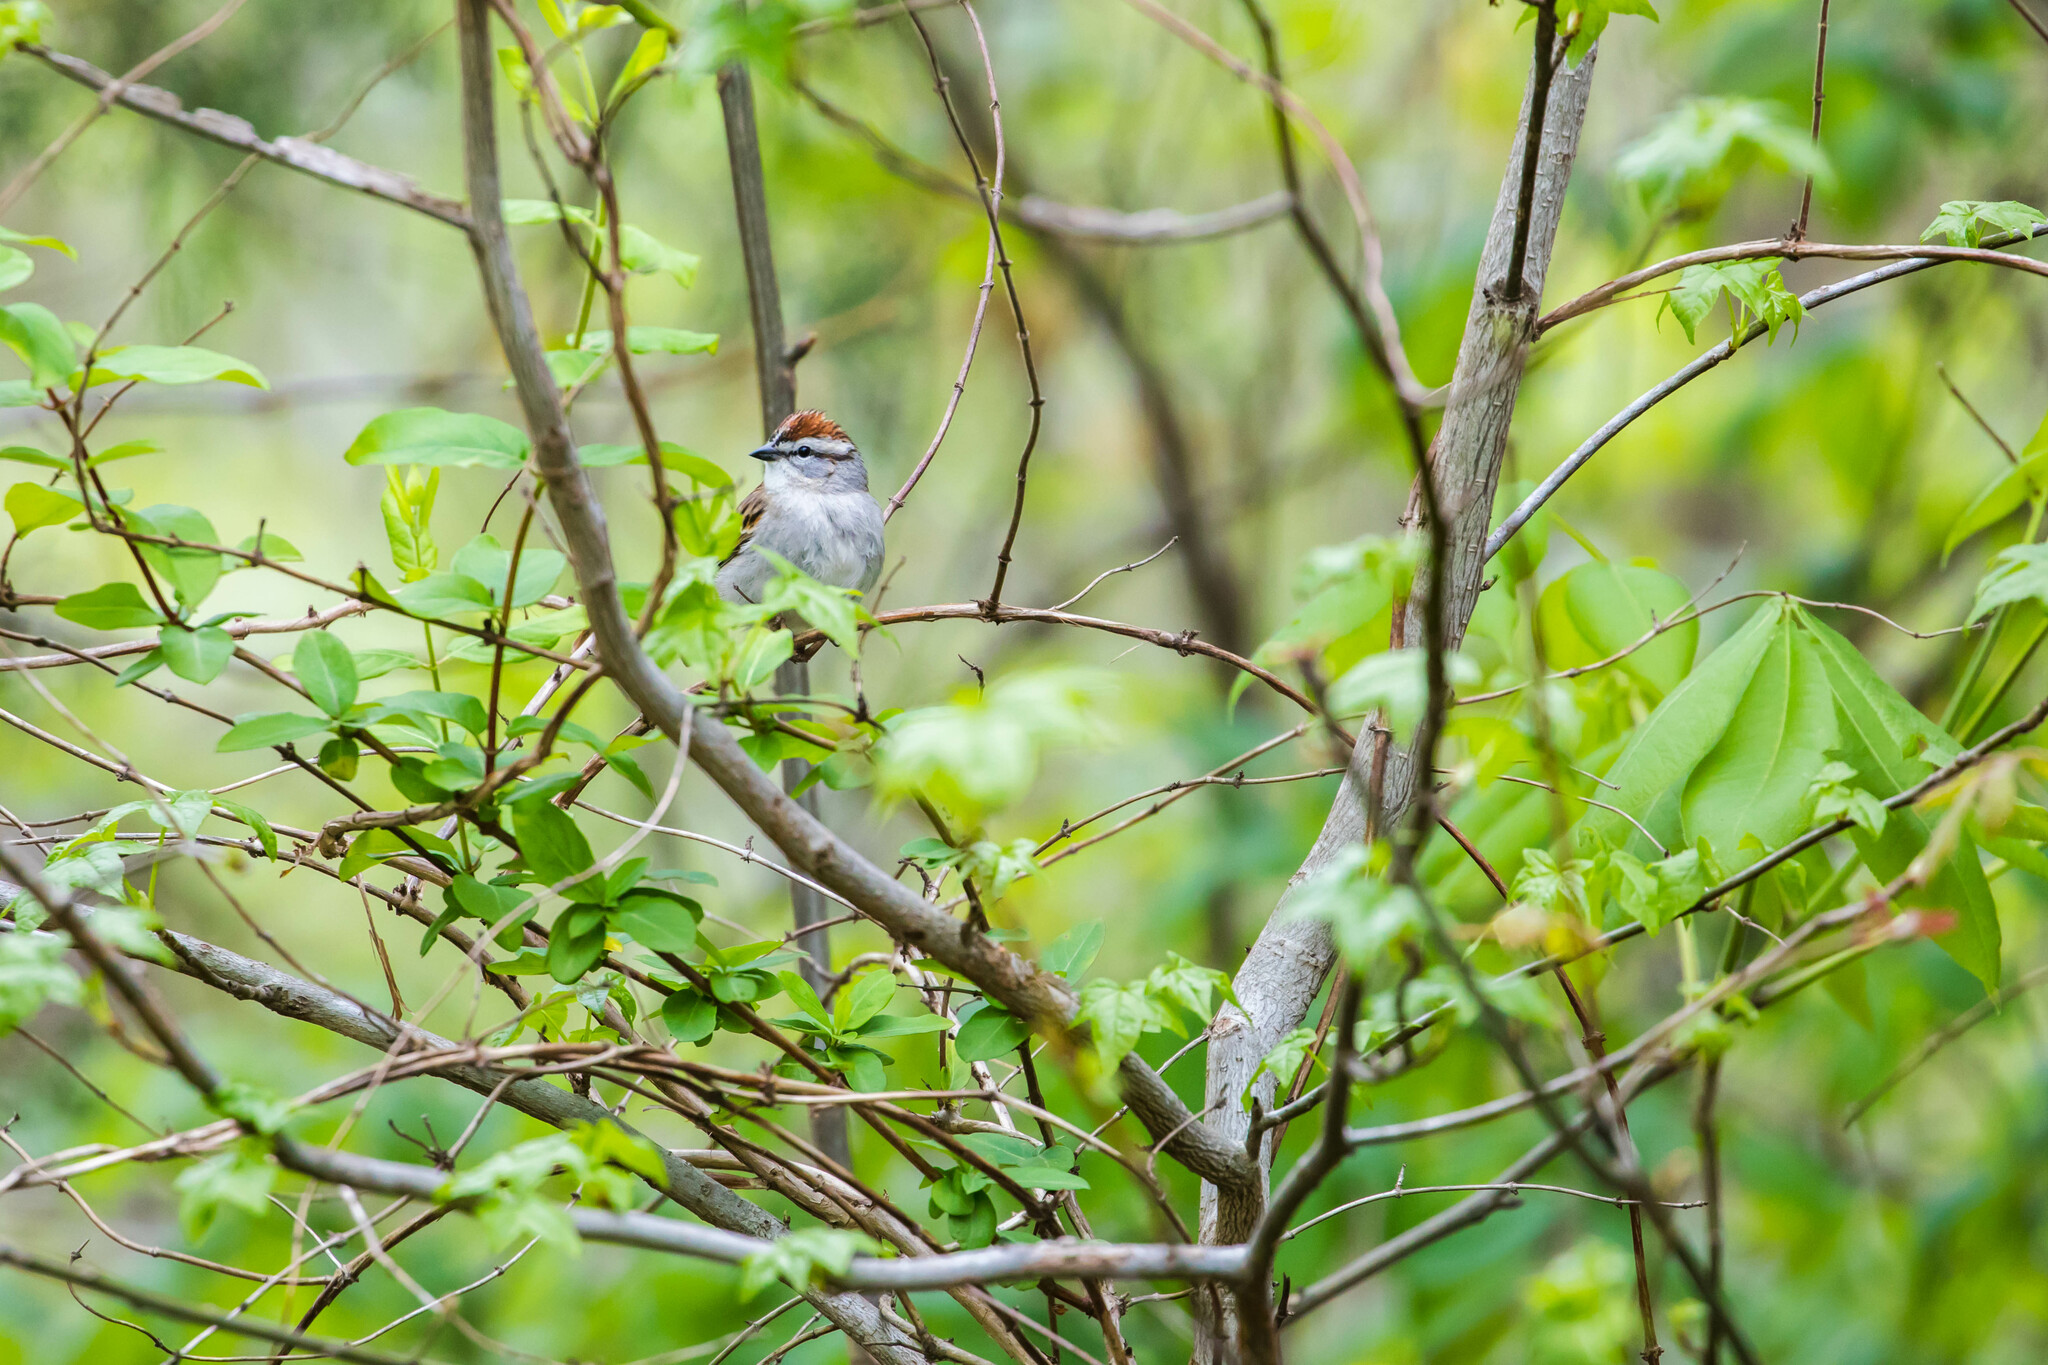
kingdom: Animalia
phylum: Chordata
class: Aves
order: Passeriformes
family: Passerellidae
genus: Spizella
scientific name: Spizella passerina
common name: Chipping sparrow
